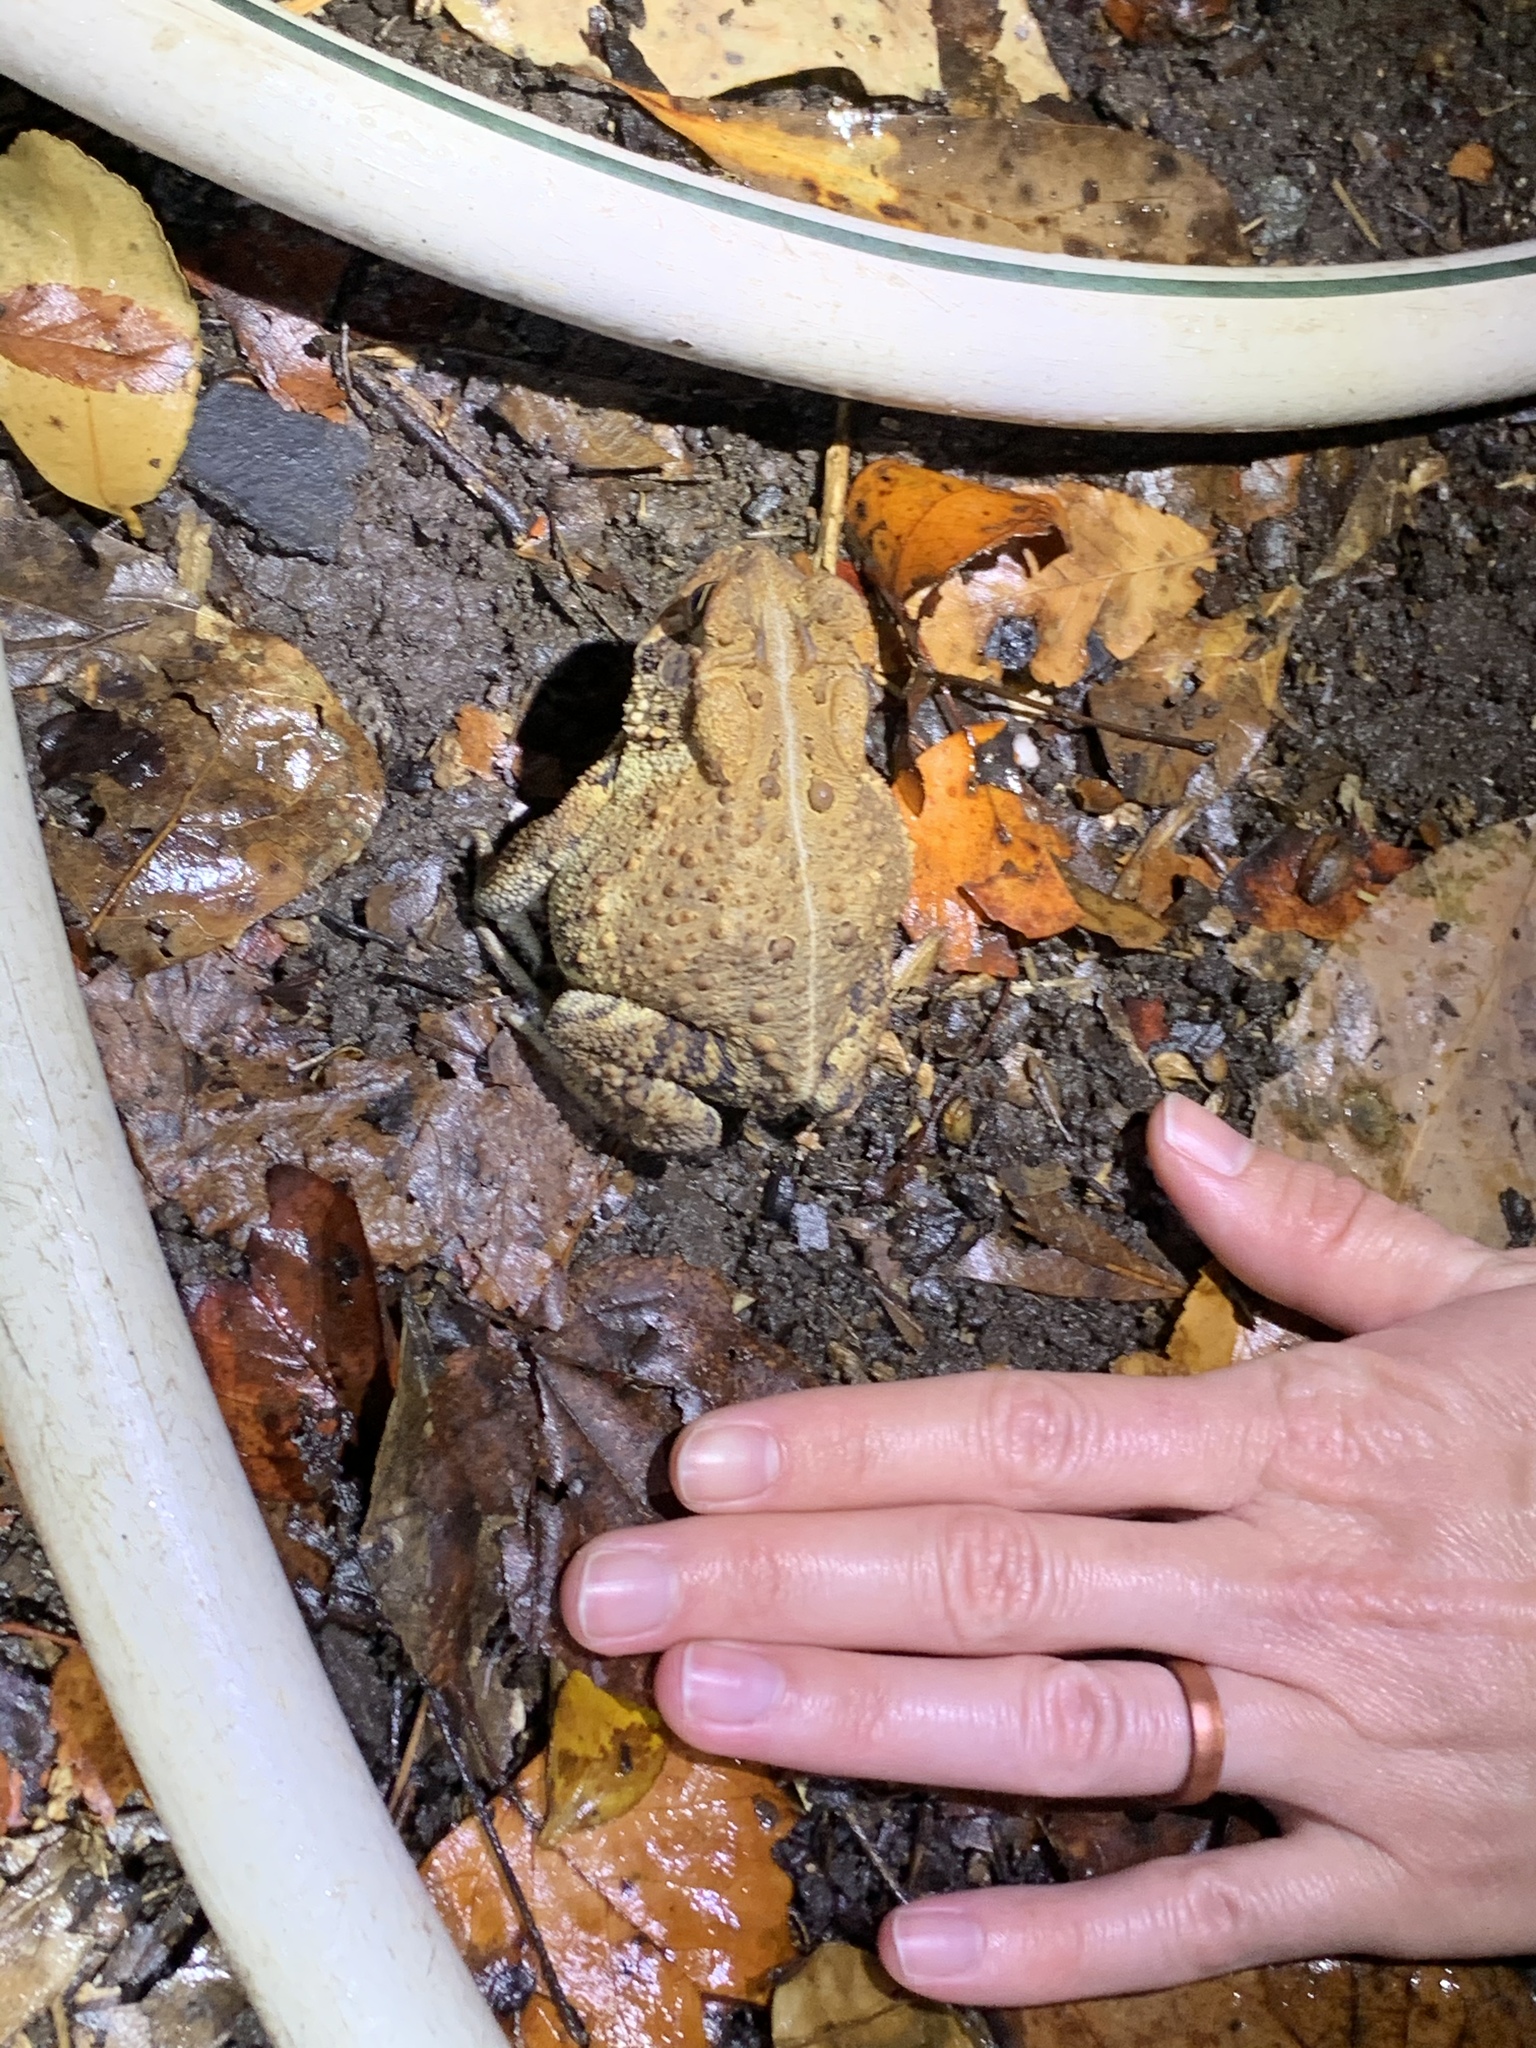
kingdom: Animalia
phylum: Chordata
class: Amphibia
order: Anura
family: Bufonidae
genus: Anaxyrus
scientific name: Anaxyrus americanus
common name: American toad
